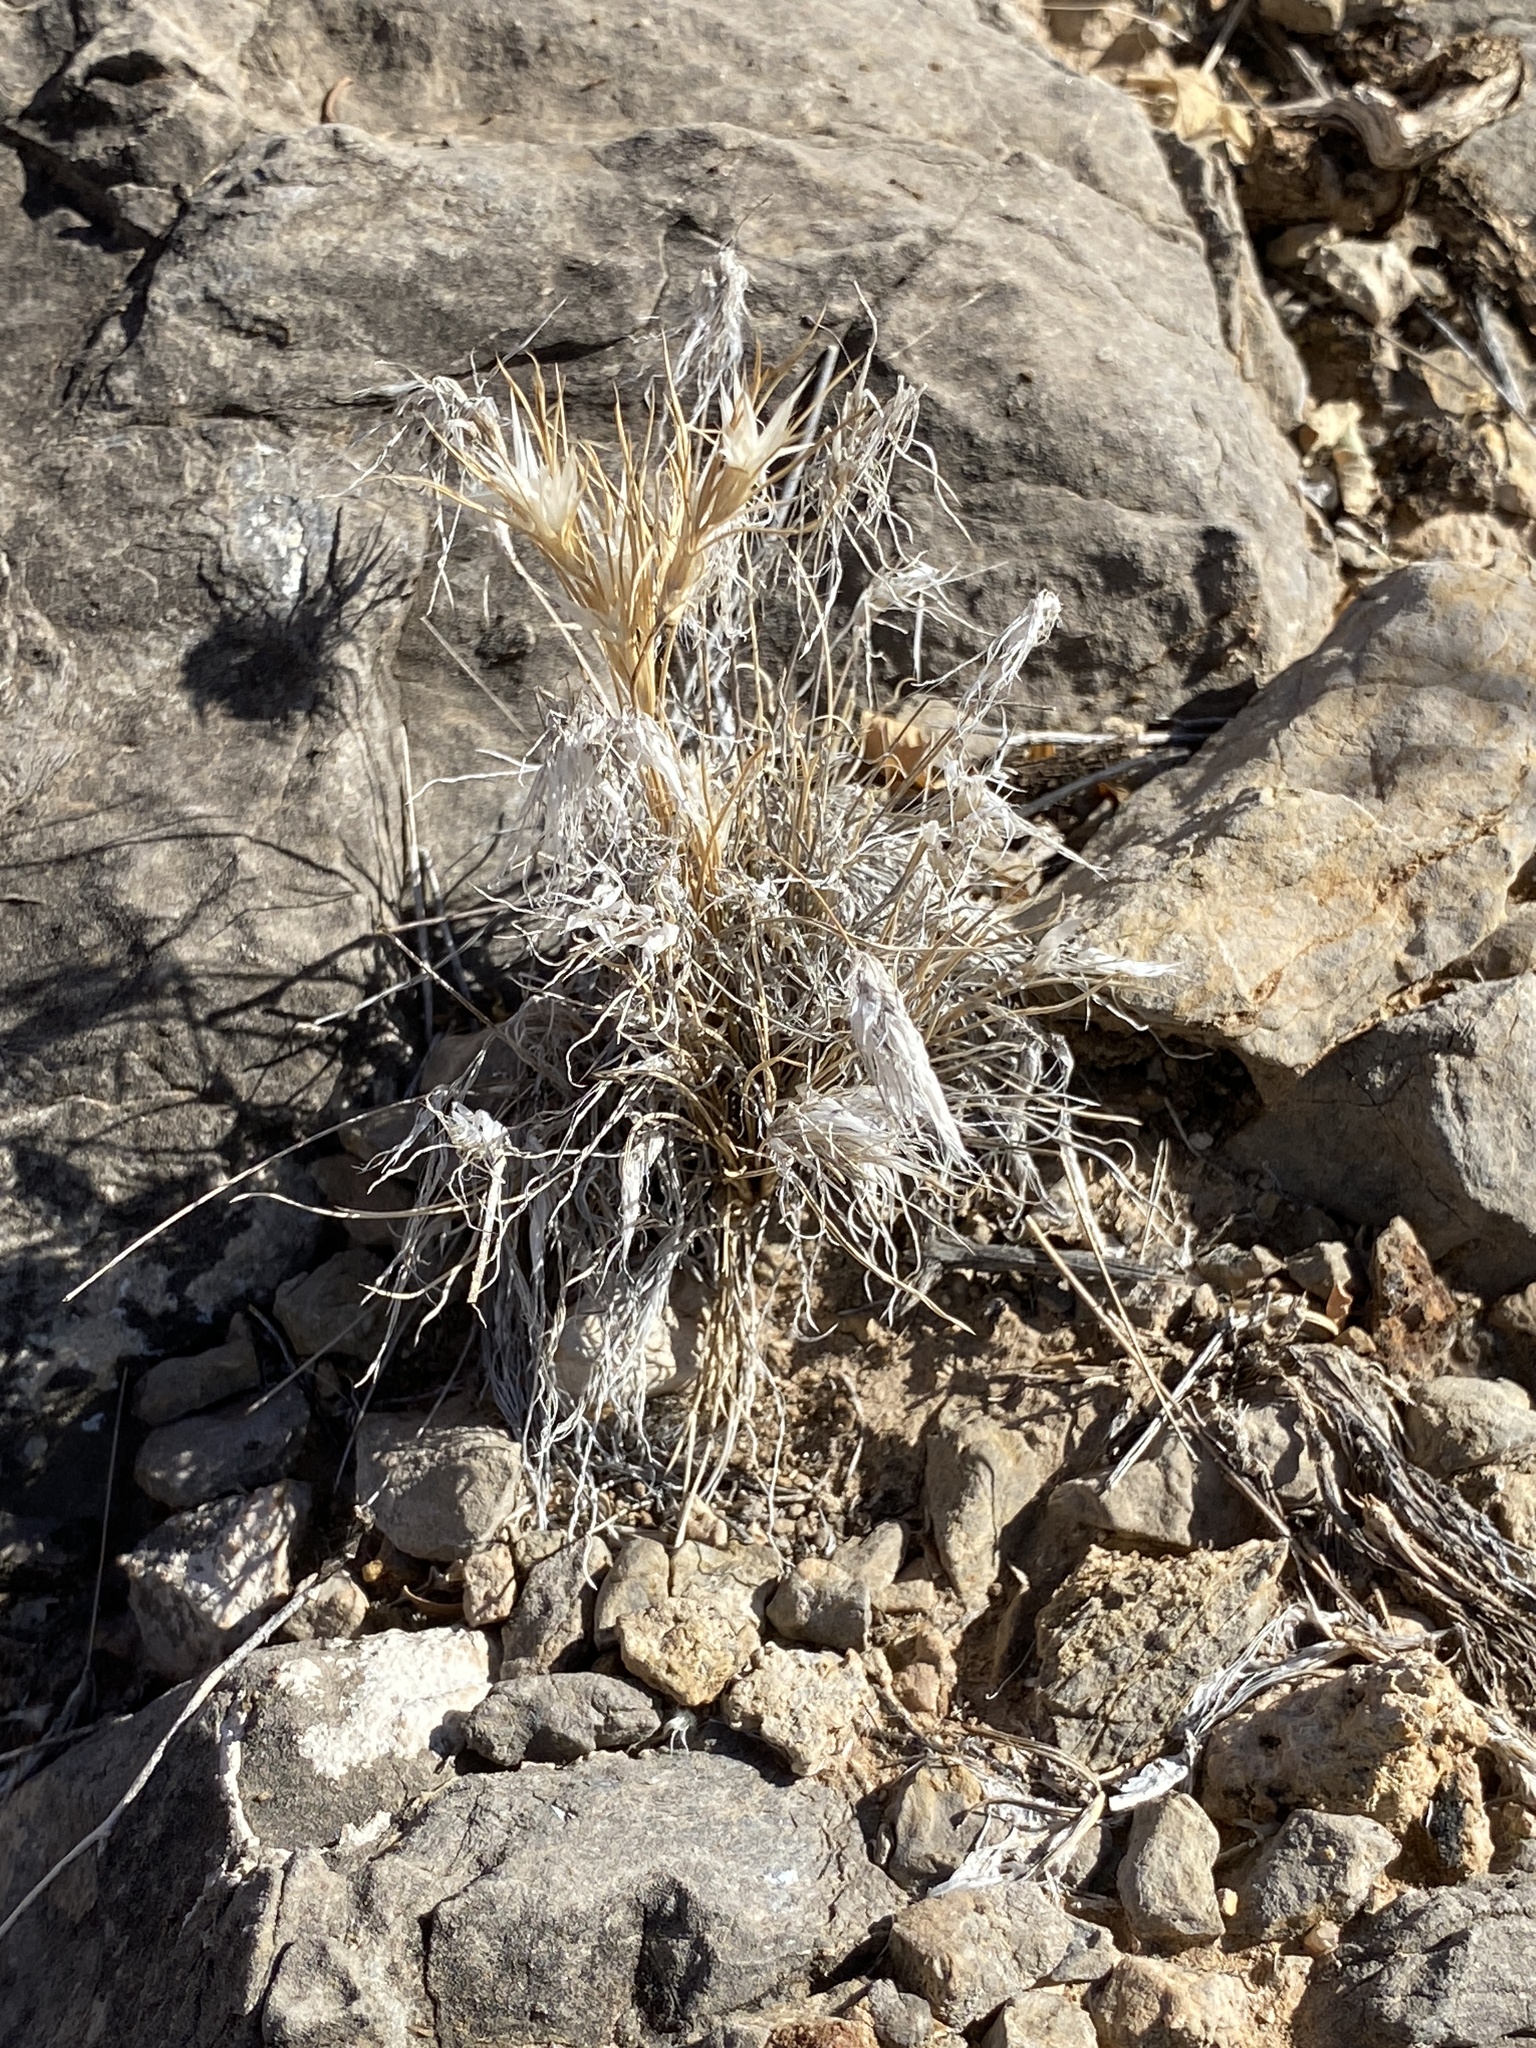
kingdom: Plantae
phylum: Tracheophyta
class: Liliopsida
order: Poales
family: Poaceae
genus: Dasyochloa
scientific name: Dasyochloa pulchella
